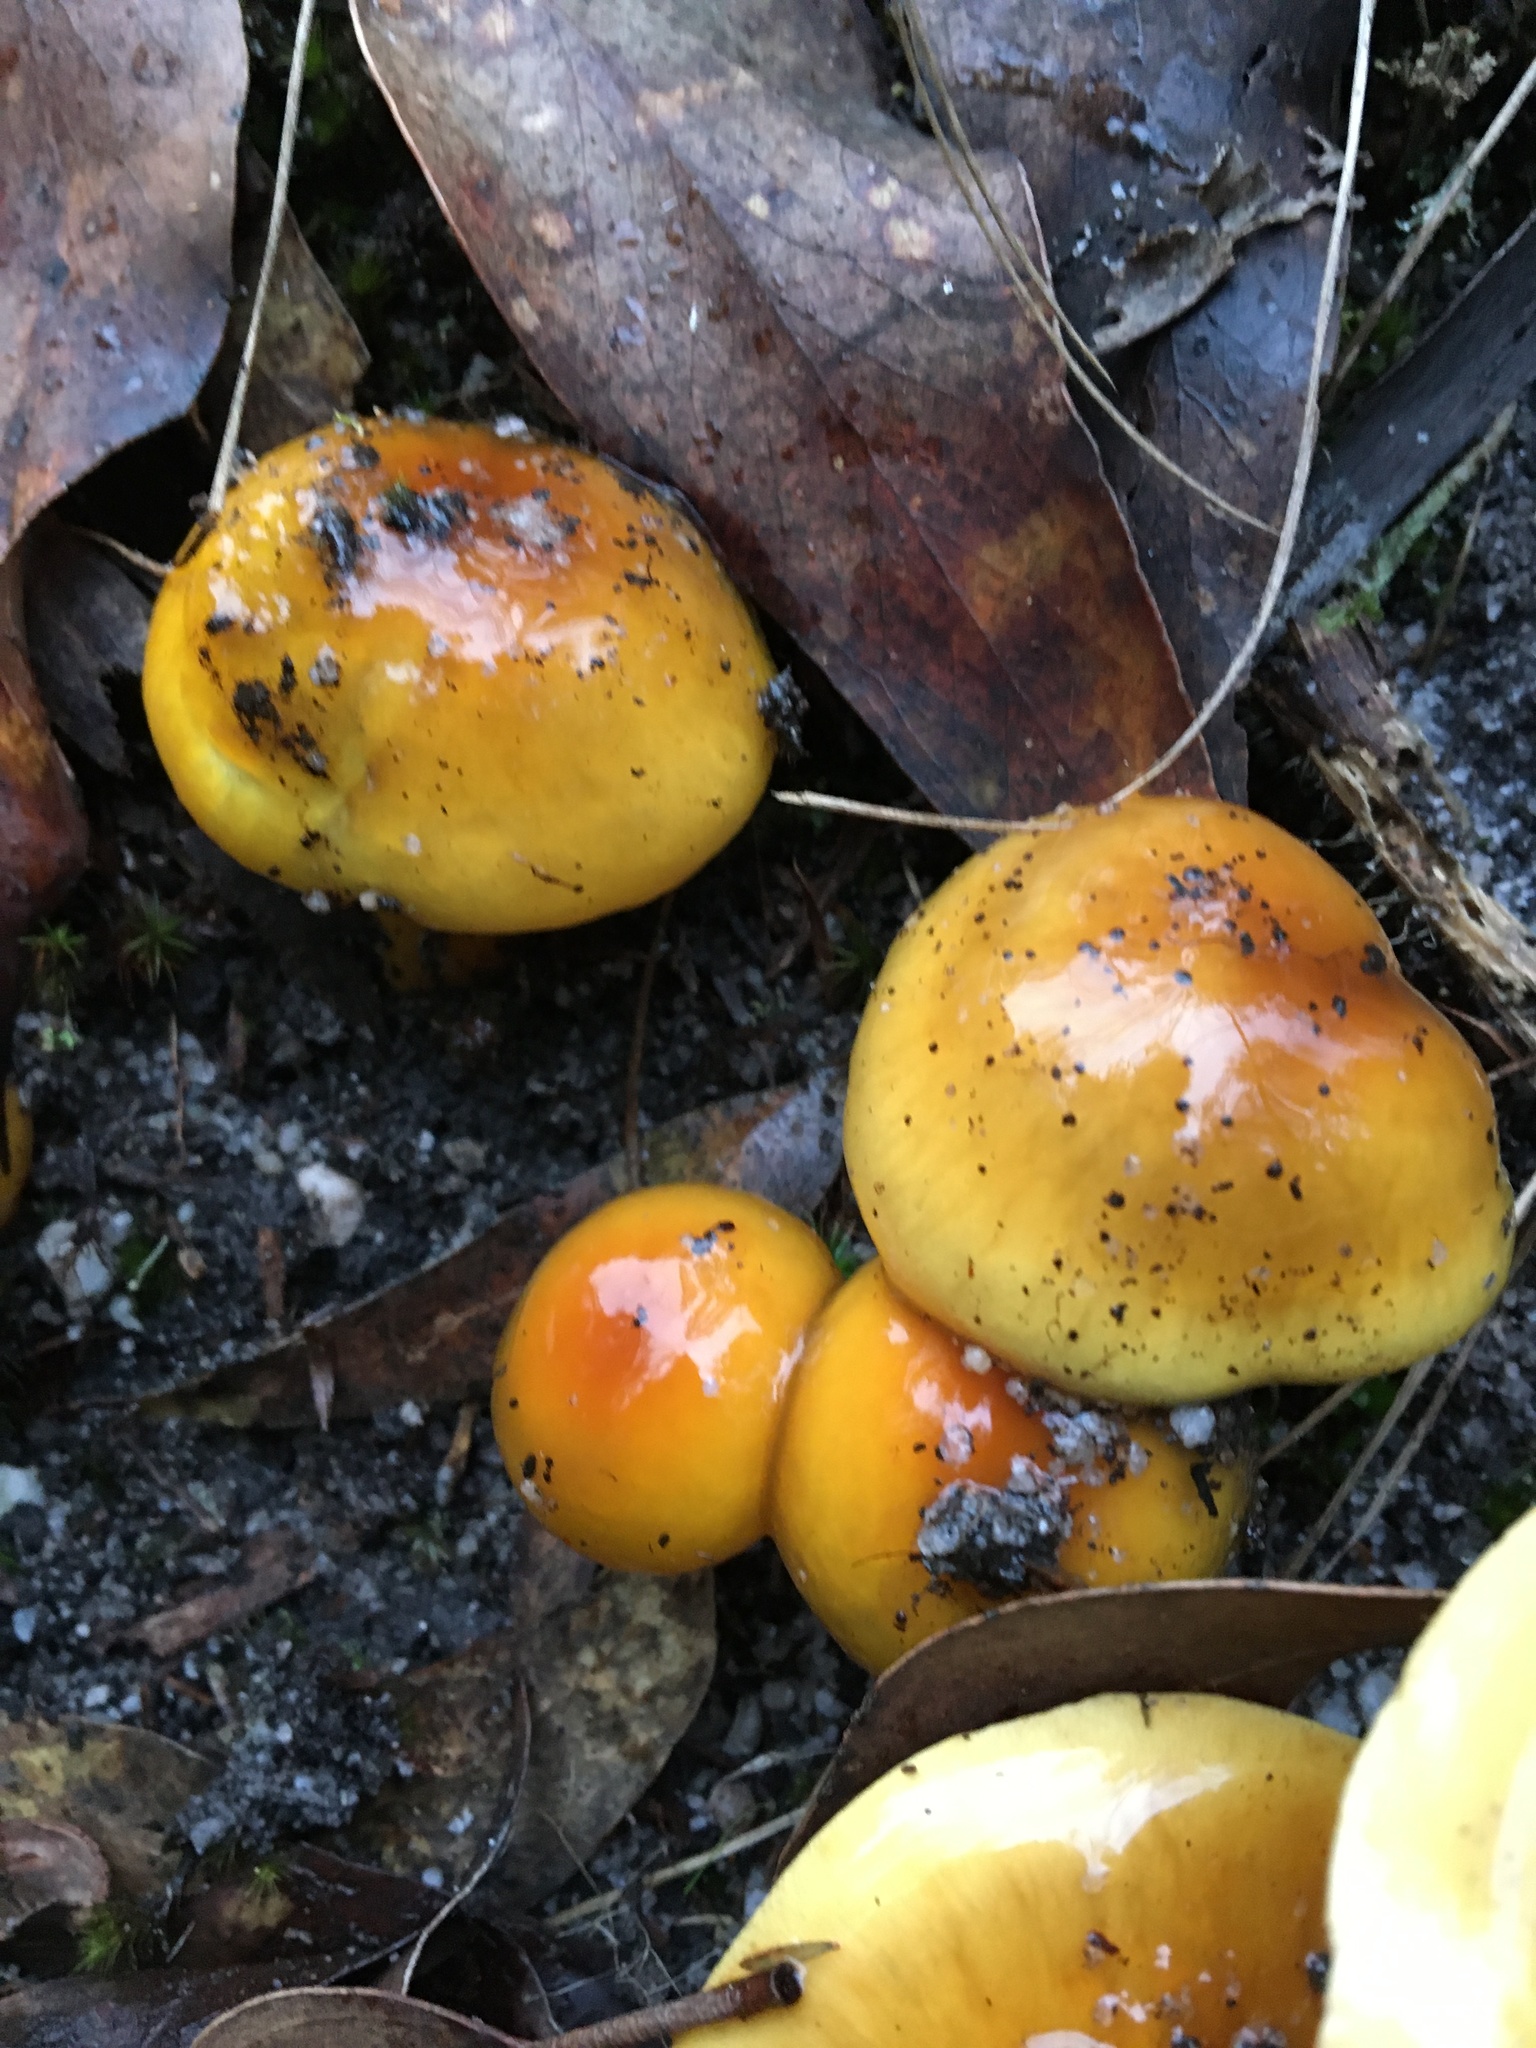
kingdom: Fungi
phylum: Basidiomycota
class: Agaricomycetes
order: Agaricales
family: Cortinariaceae
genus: Cortinarius
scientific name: Cortinarius sinapicolor
